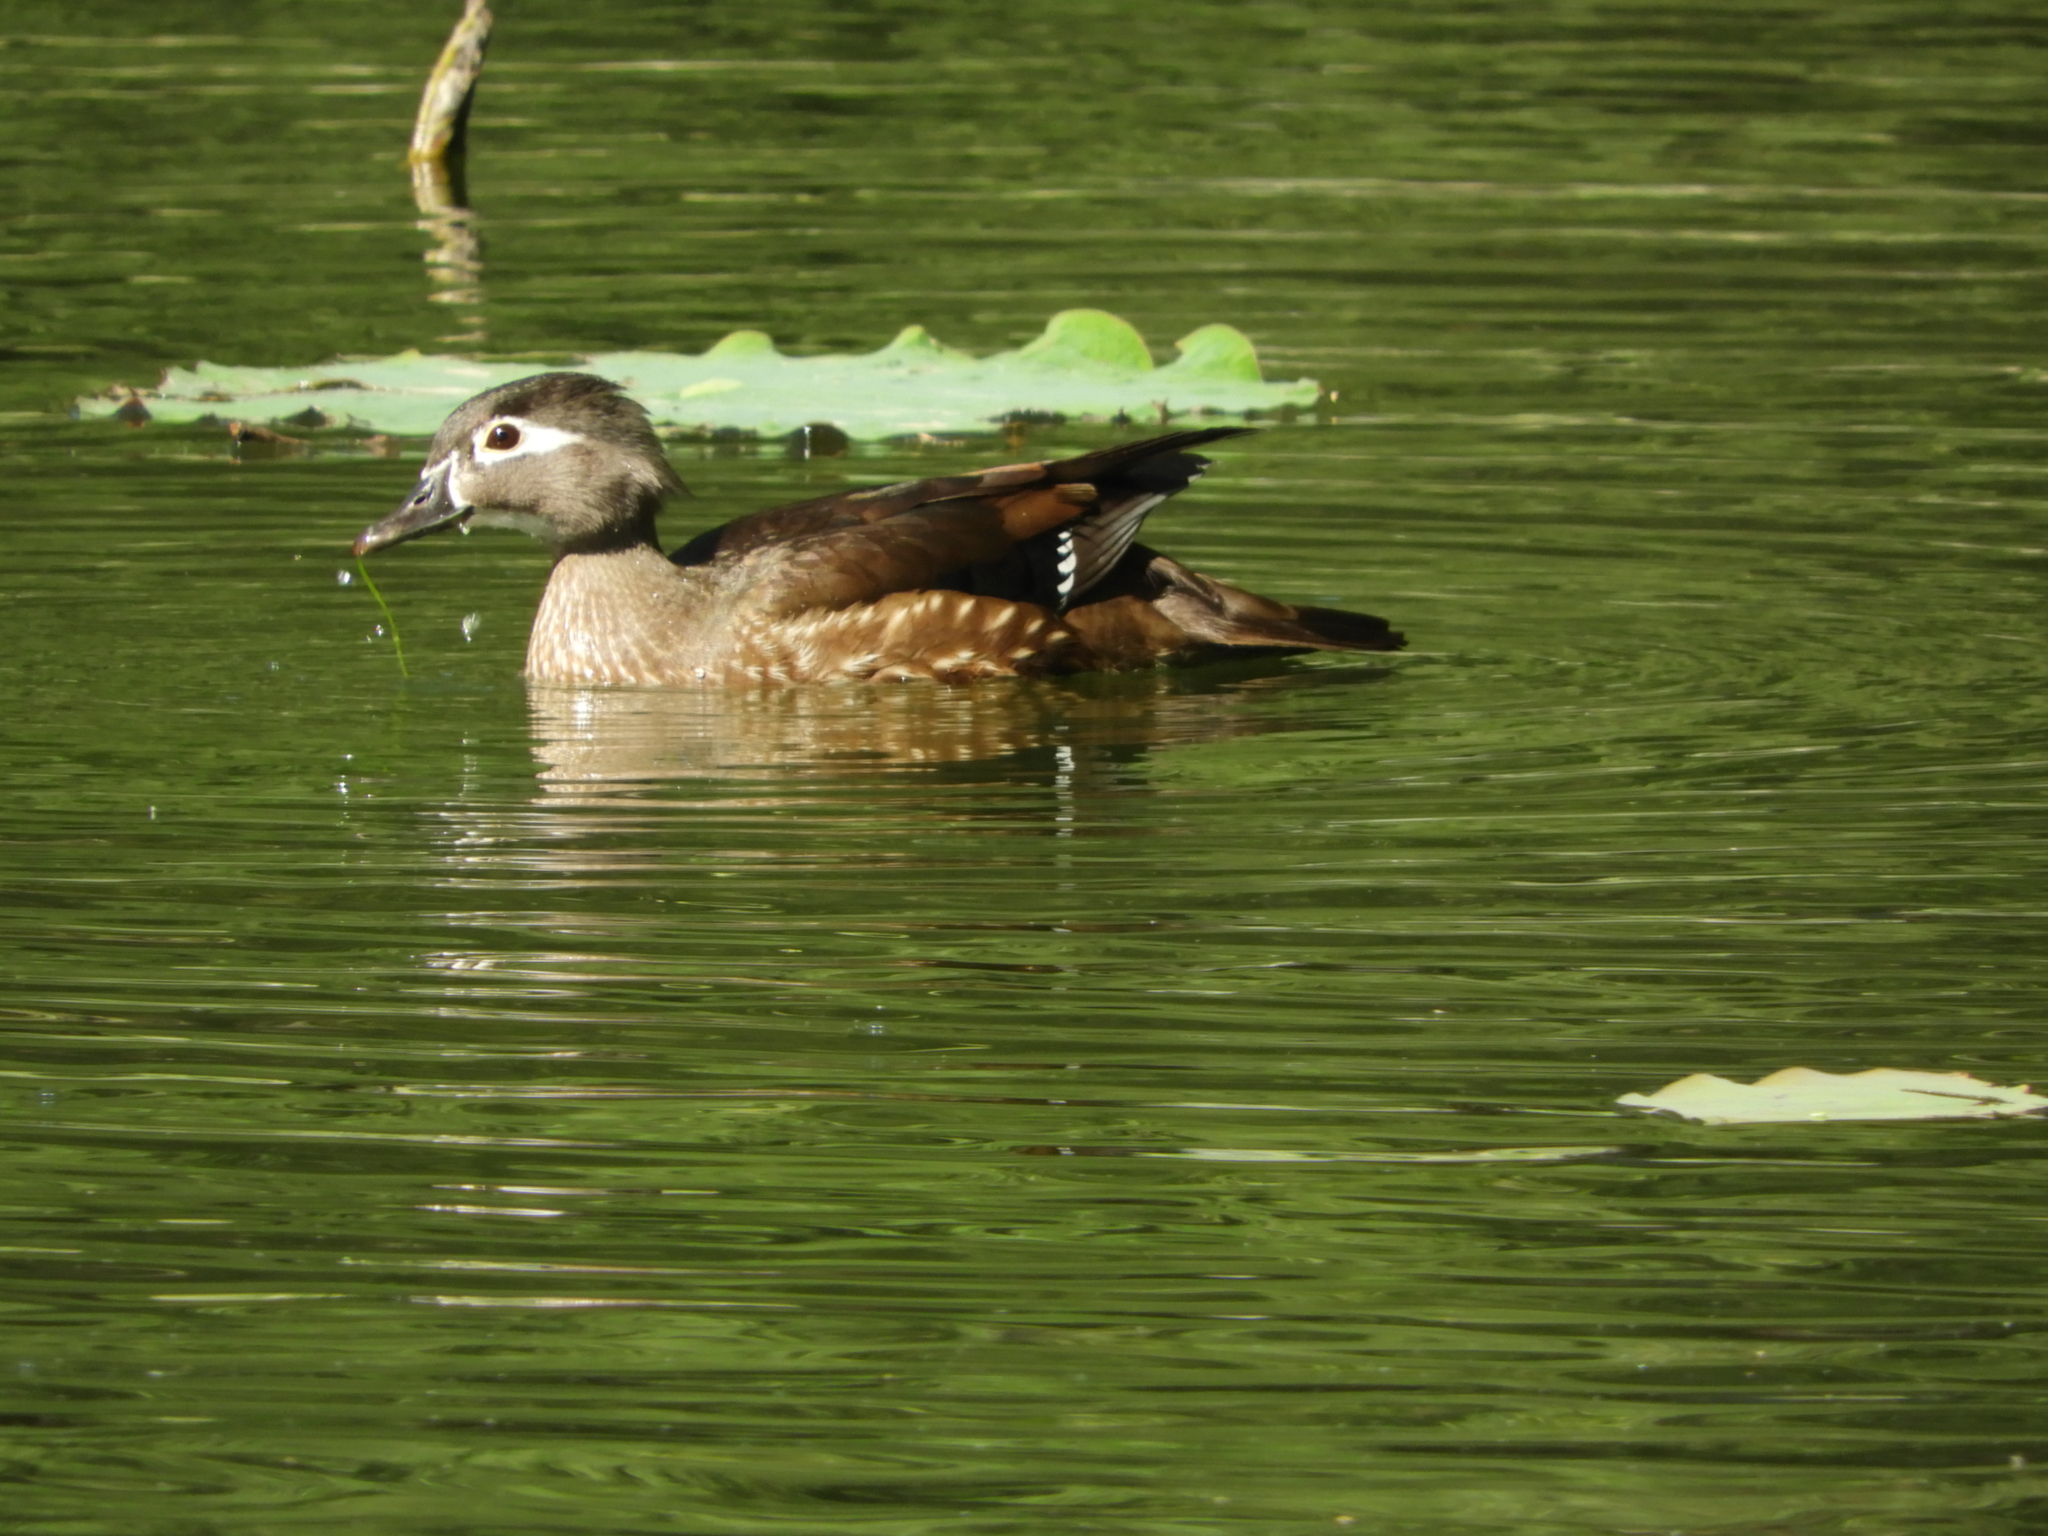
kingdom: Animalia
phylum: Chordata
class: Aves
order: Anseriformes
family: Anatidae
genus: Aix
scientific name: Aix sponsa
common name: Wood duck
